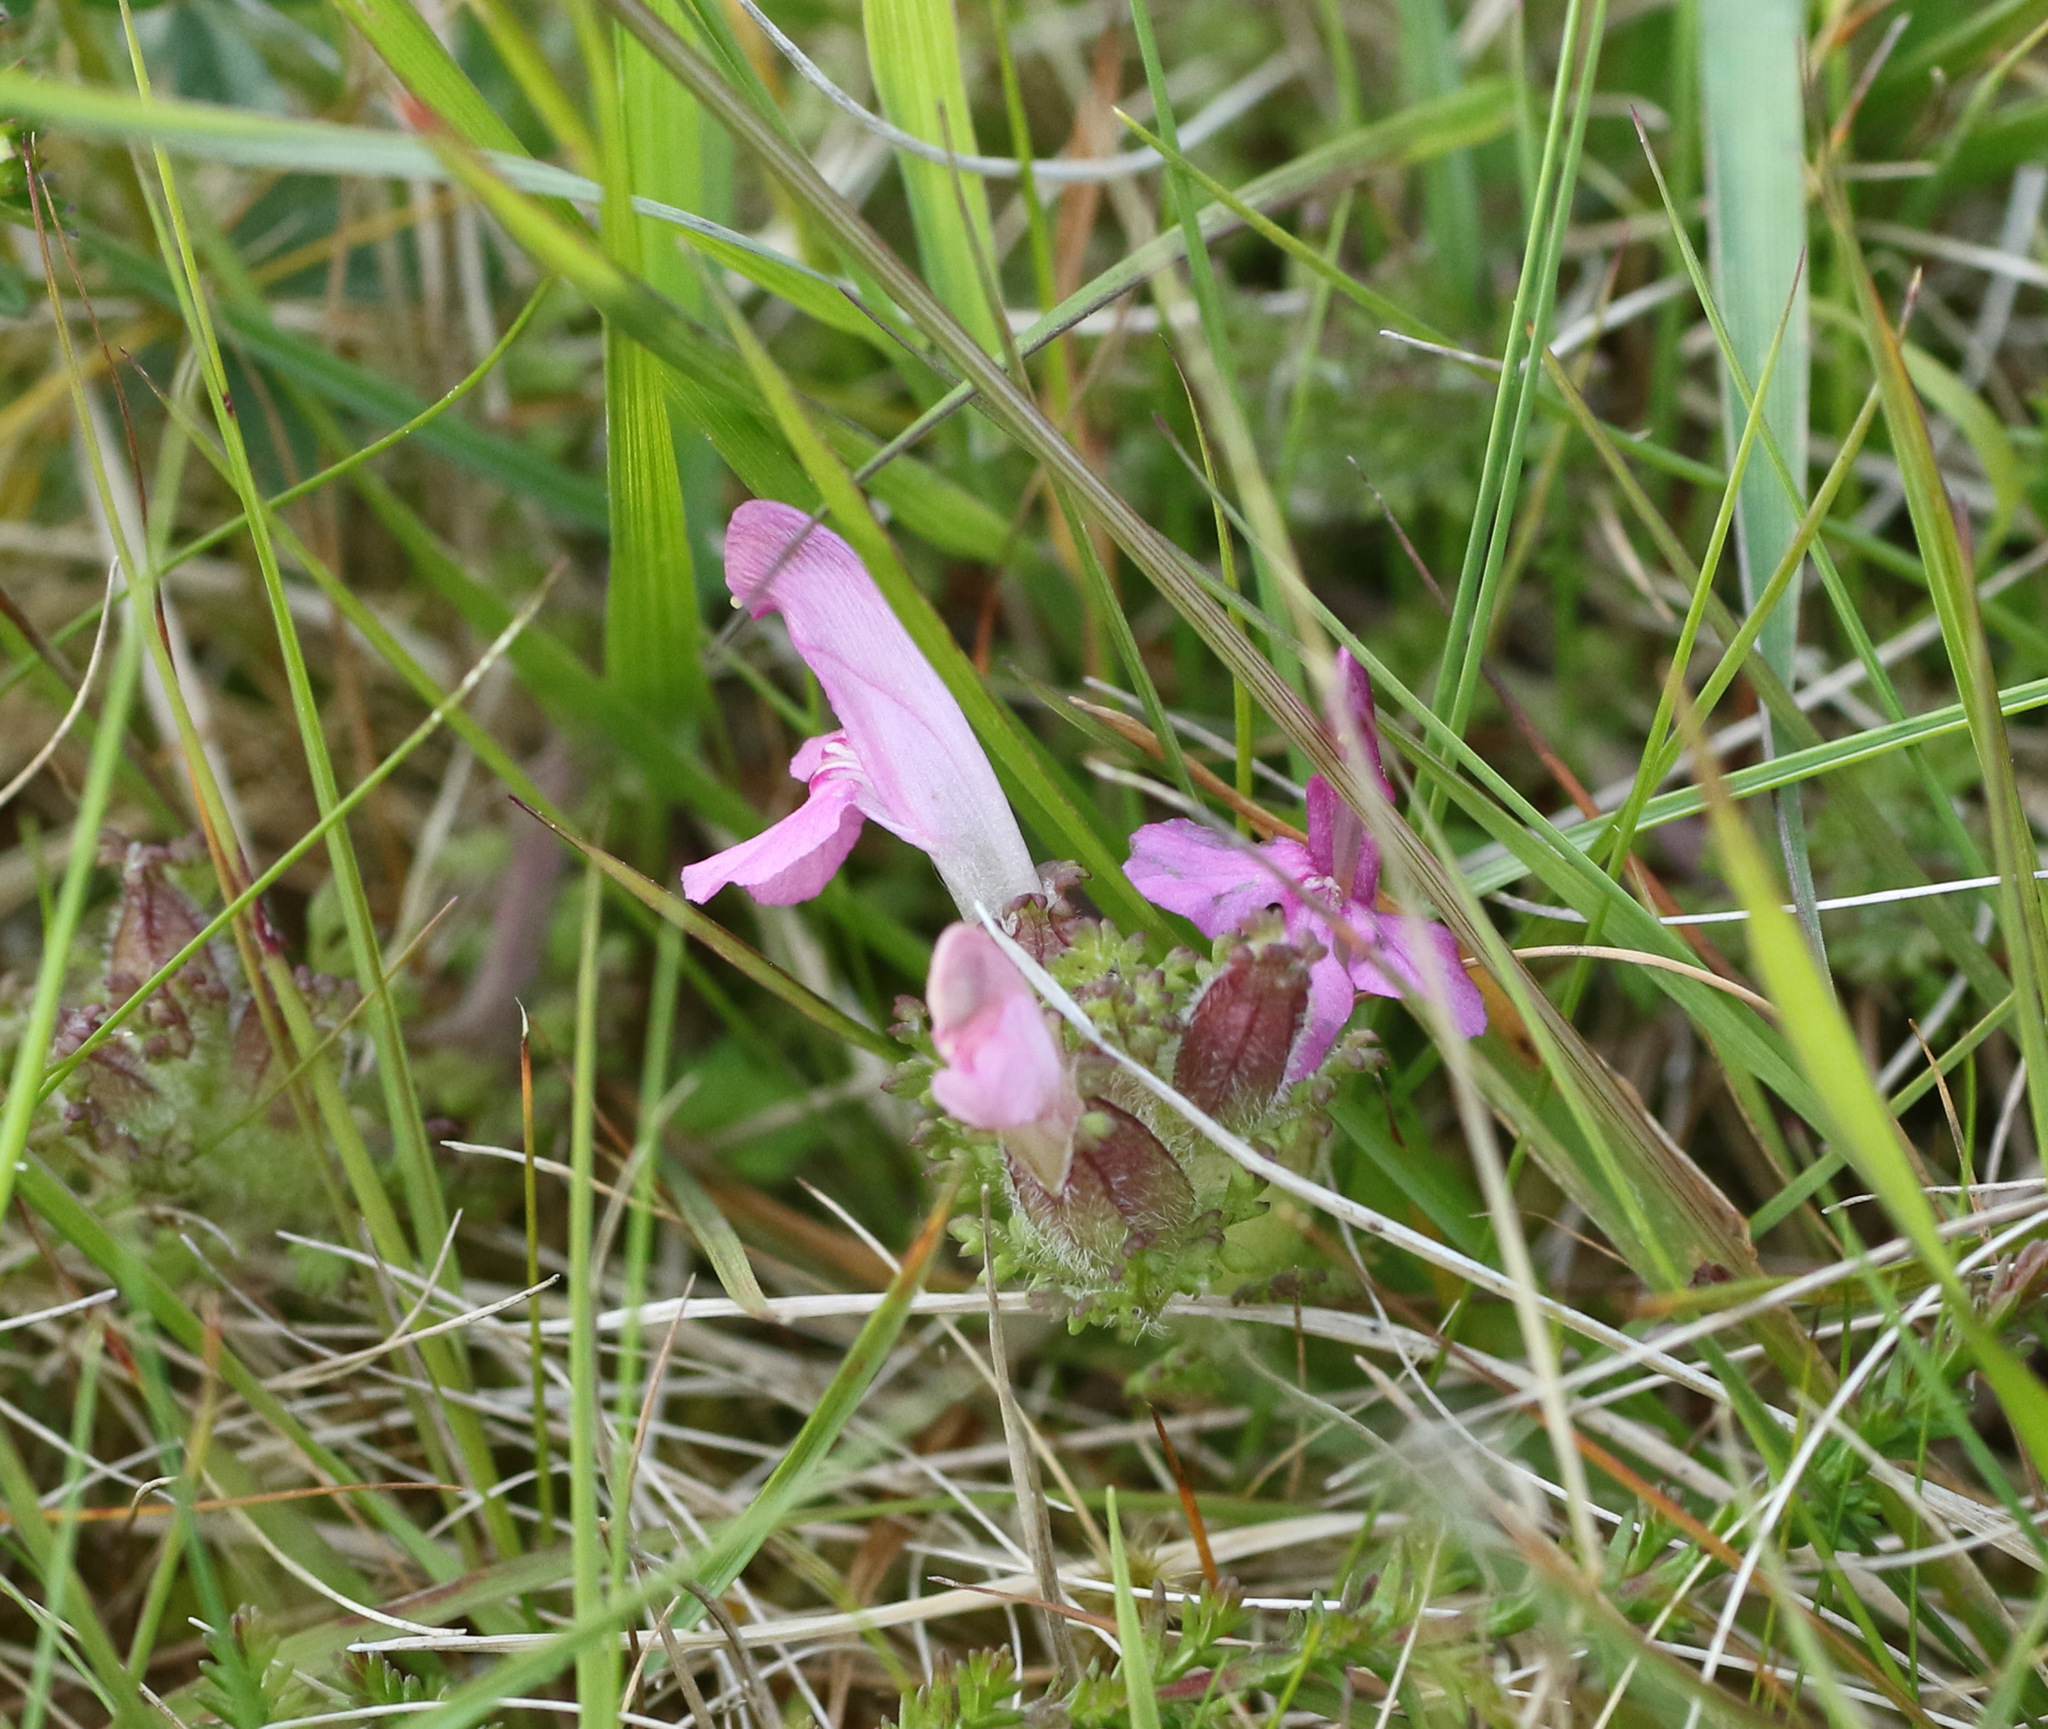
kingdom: Plantae
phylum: Tracheophyta
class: Magnoliopsida
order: Lamiales
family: Orobanchaceae
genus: Pedicularis
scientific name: Pedicularis sylvatica
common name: Lousewort
